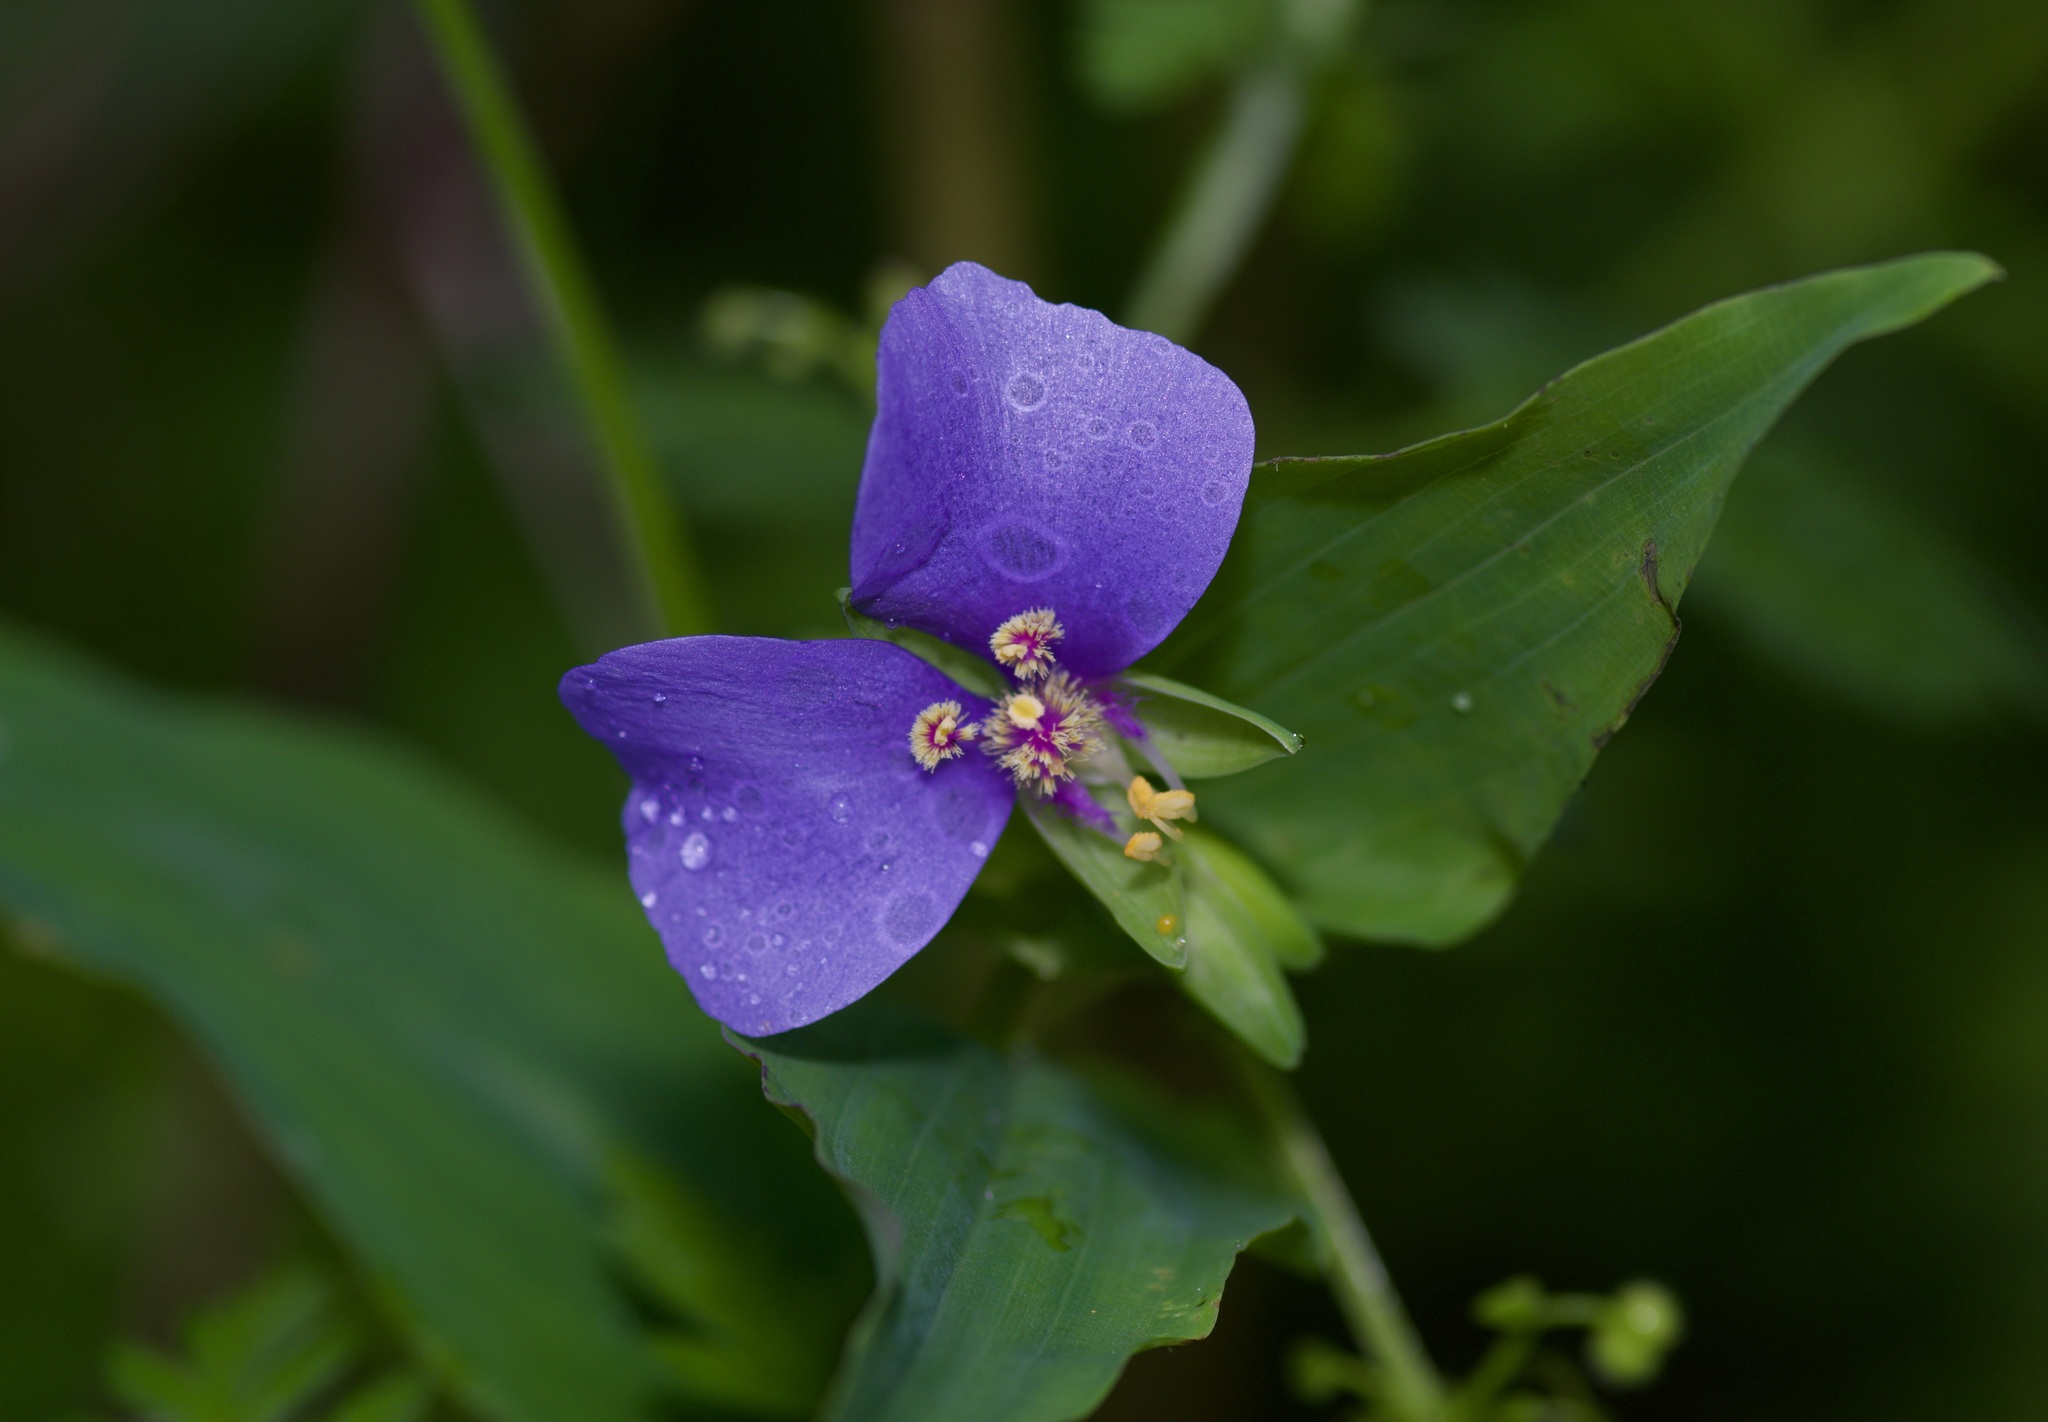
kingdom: Plantae
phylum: Tracheophyta
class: Liliopsida
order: Commelinales
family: Commelinaceae
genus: Tinantia
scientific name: Tinantia anomala
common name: False dayflower
